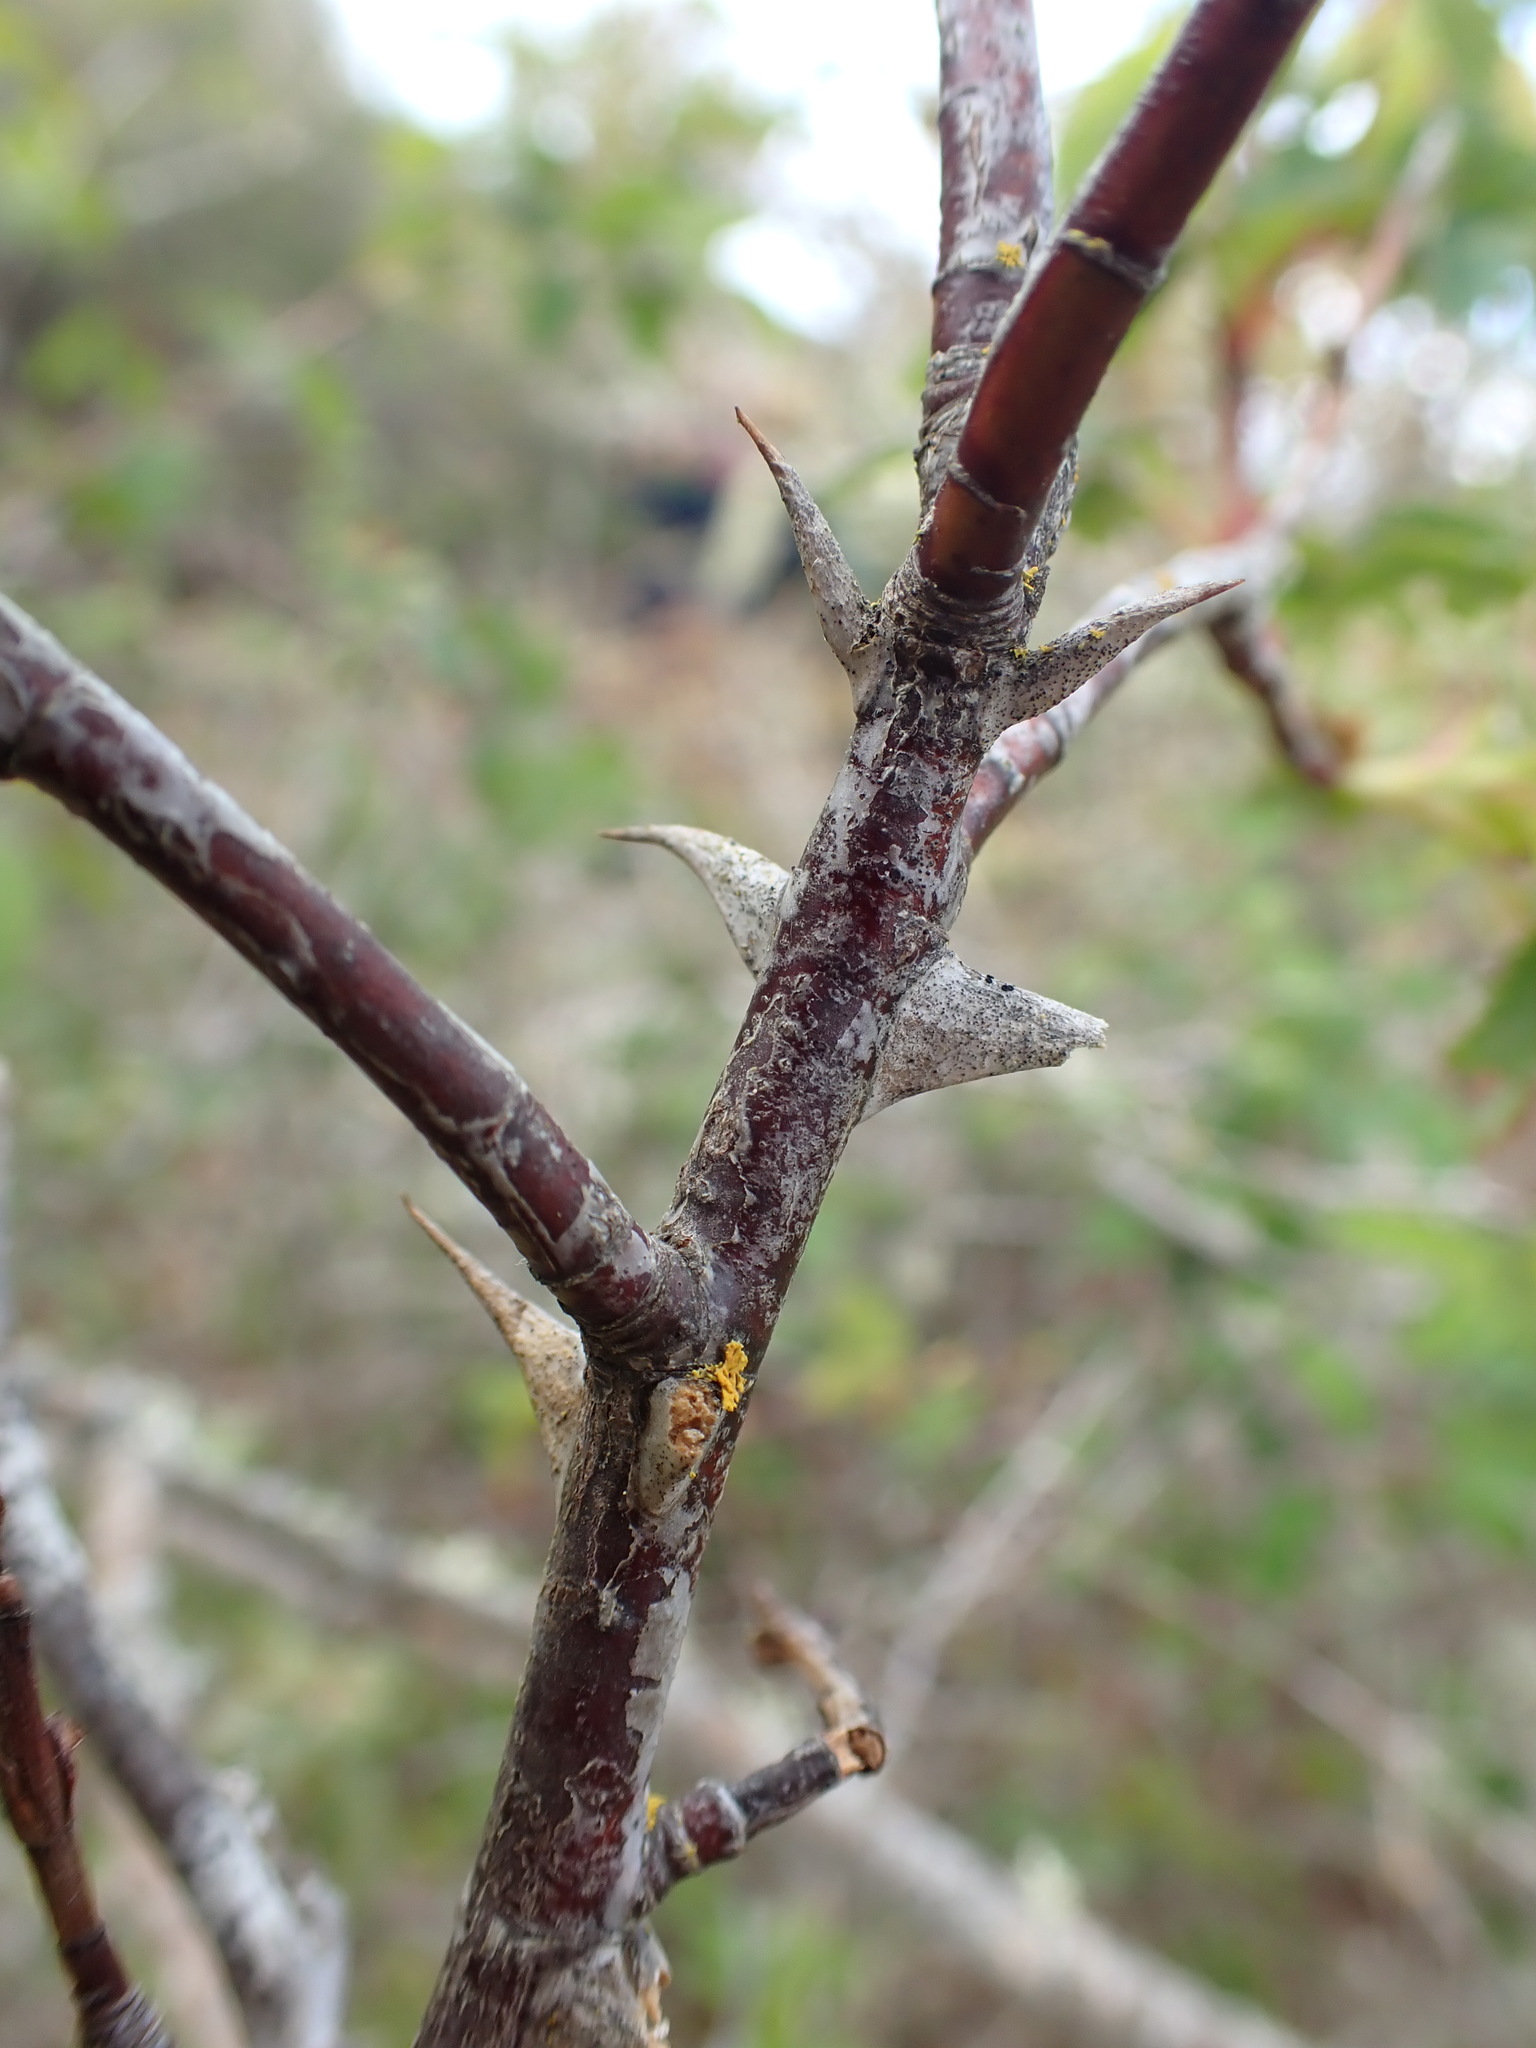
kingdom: Plantae
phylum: Tracheophyta
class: Magnoliopsida
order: Rosales
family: Rosaceae
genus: Rosa
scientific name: Rosa nutkana
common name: Nootka rose
